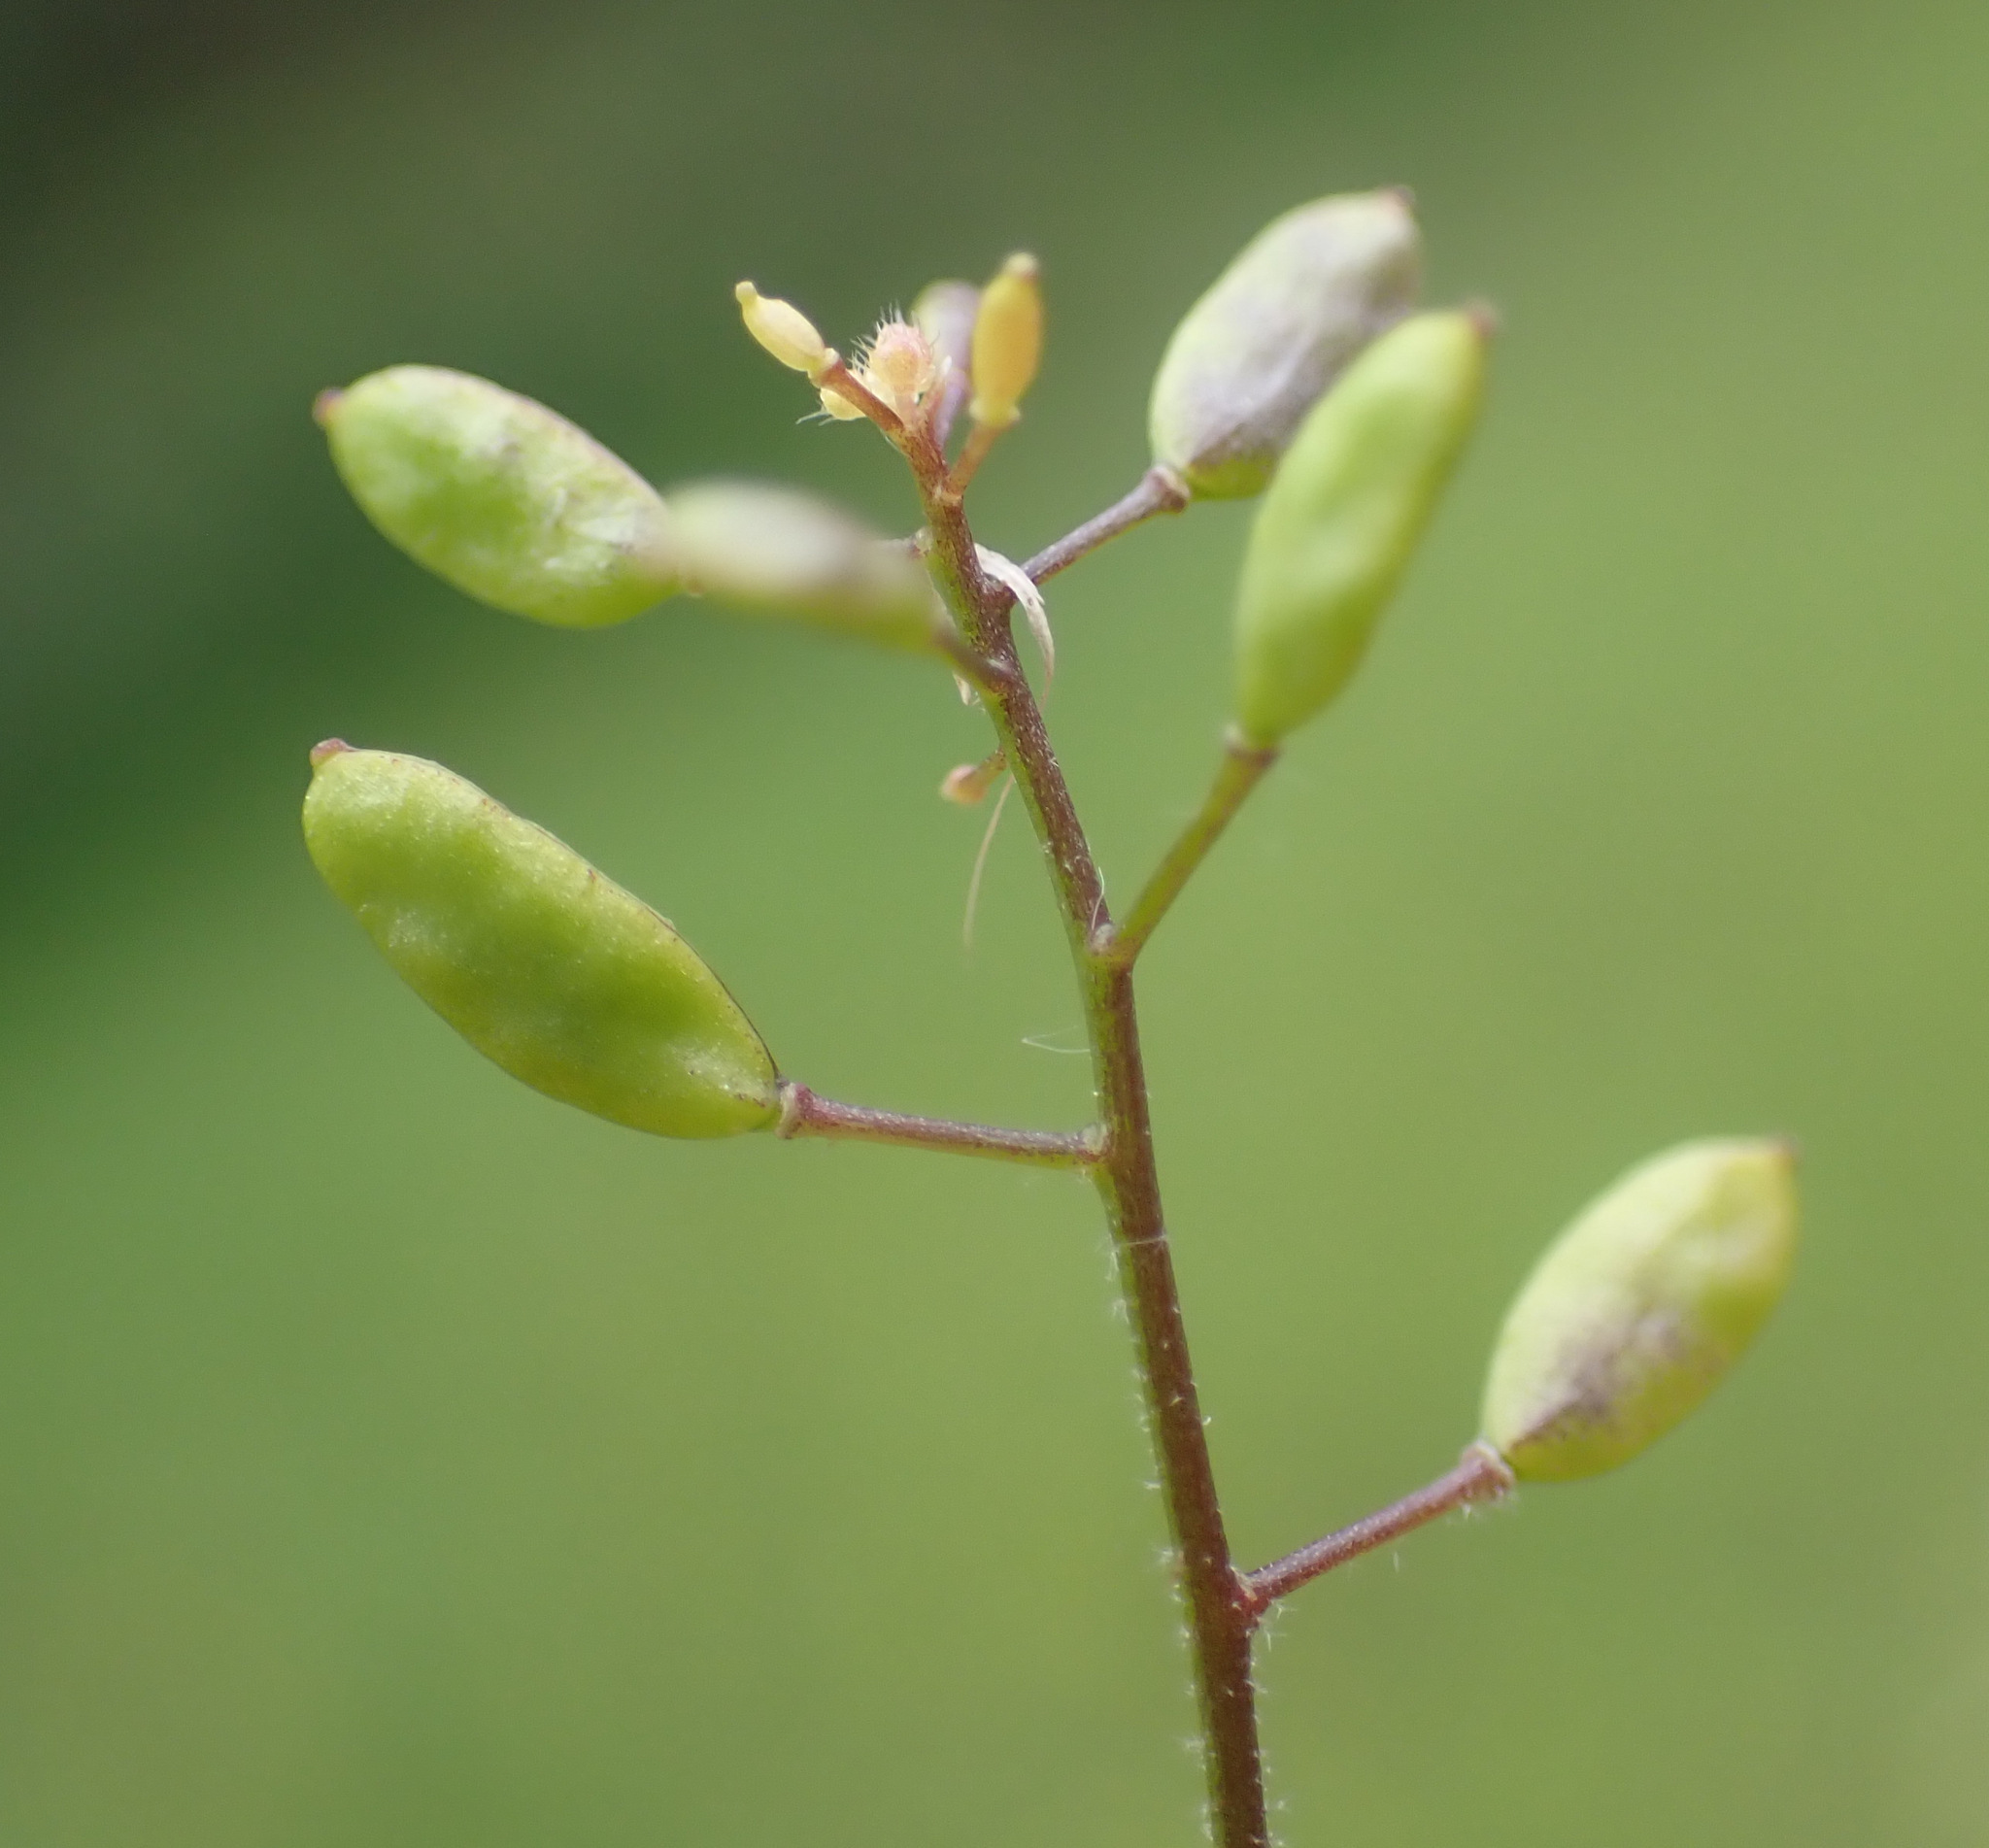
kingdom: Plantae
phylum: Tracheophyta
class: Magnoliopsida
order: Brassicales
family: Brassicaceae
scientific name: Brassicaceae
